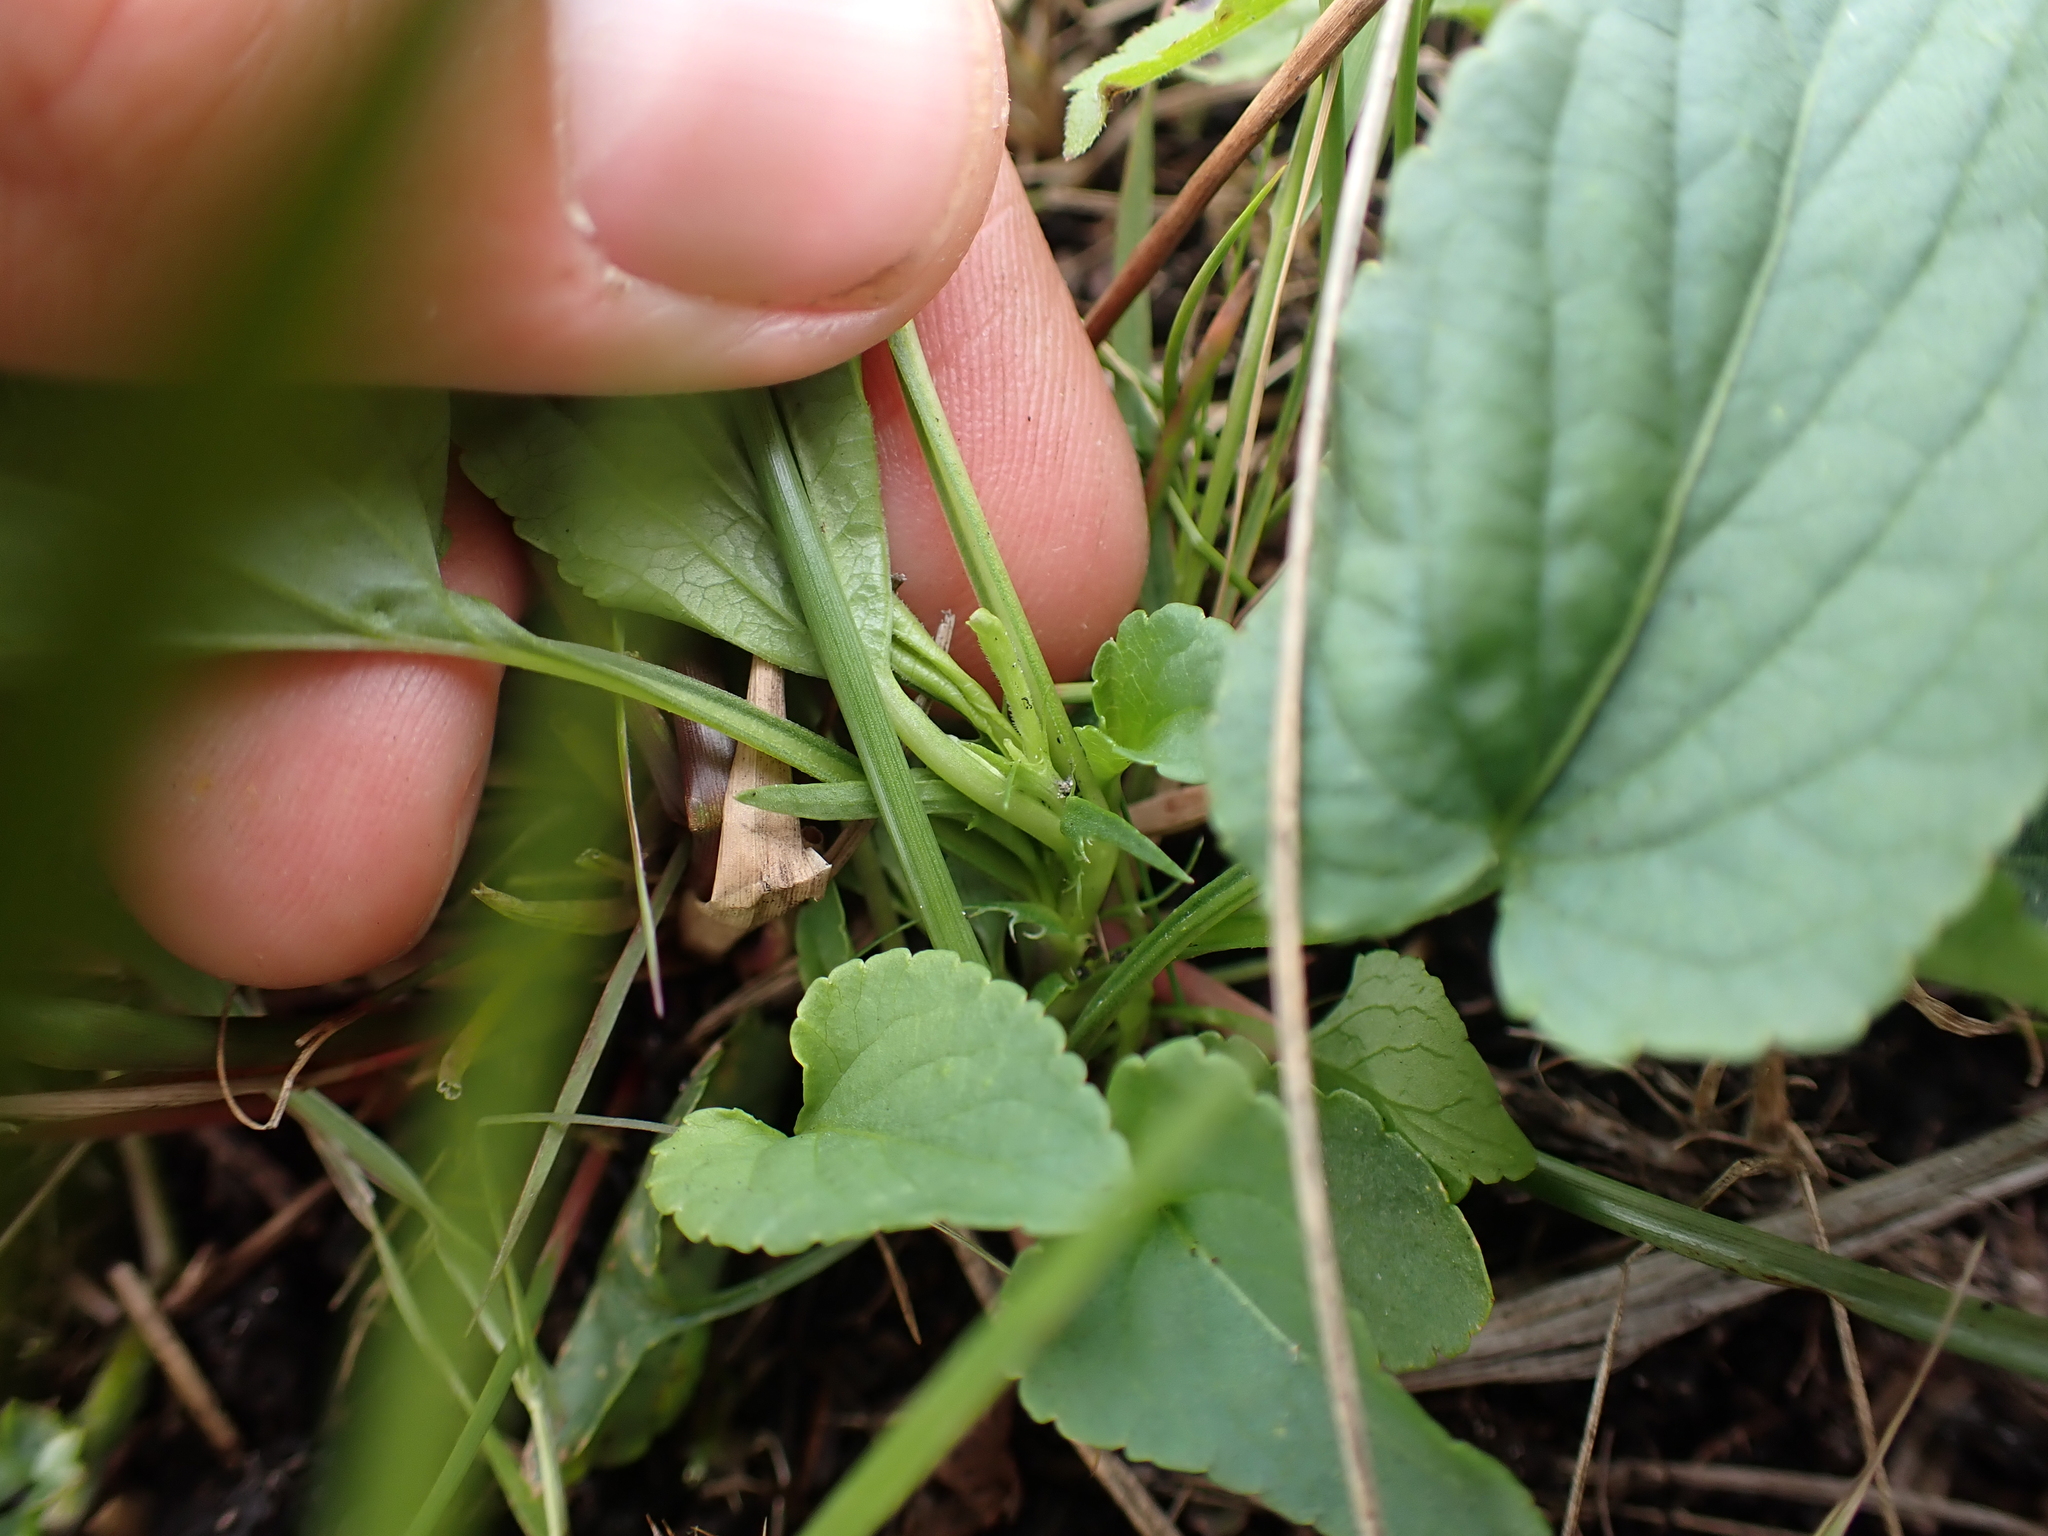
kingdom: Plantae
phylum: Tracheophyta
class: Magnoliopsida
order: Malpighiales
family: Violaceae
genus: Viola
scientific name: Viola stagnina
